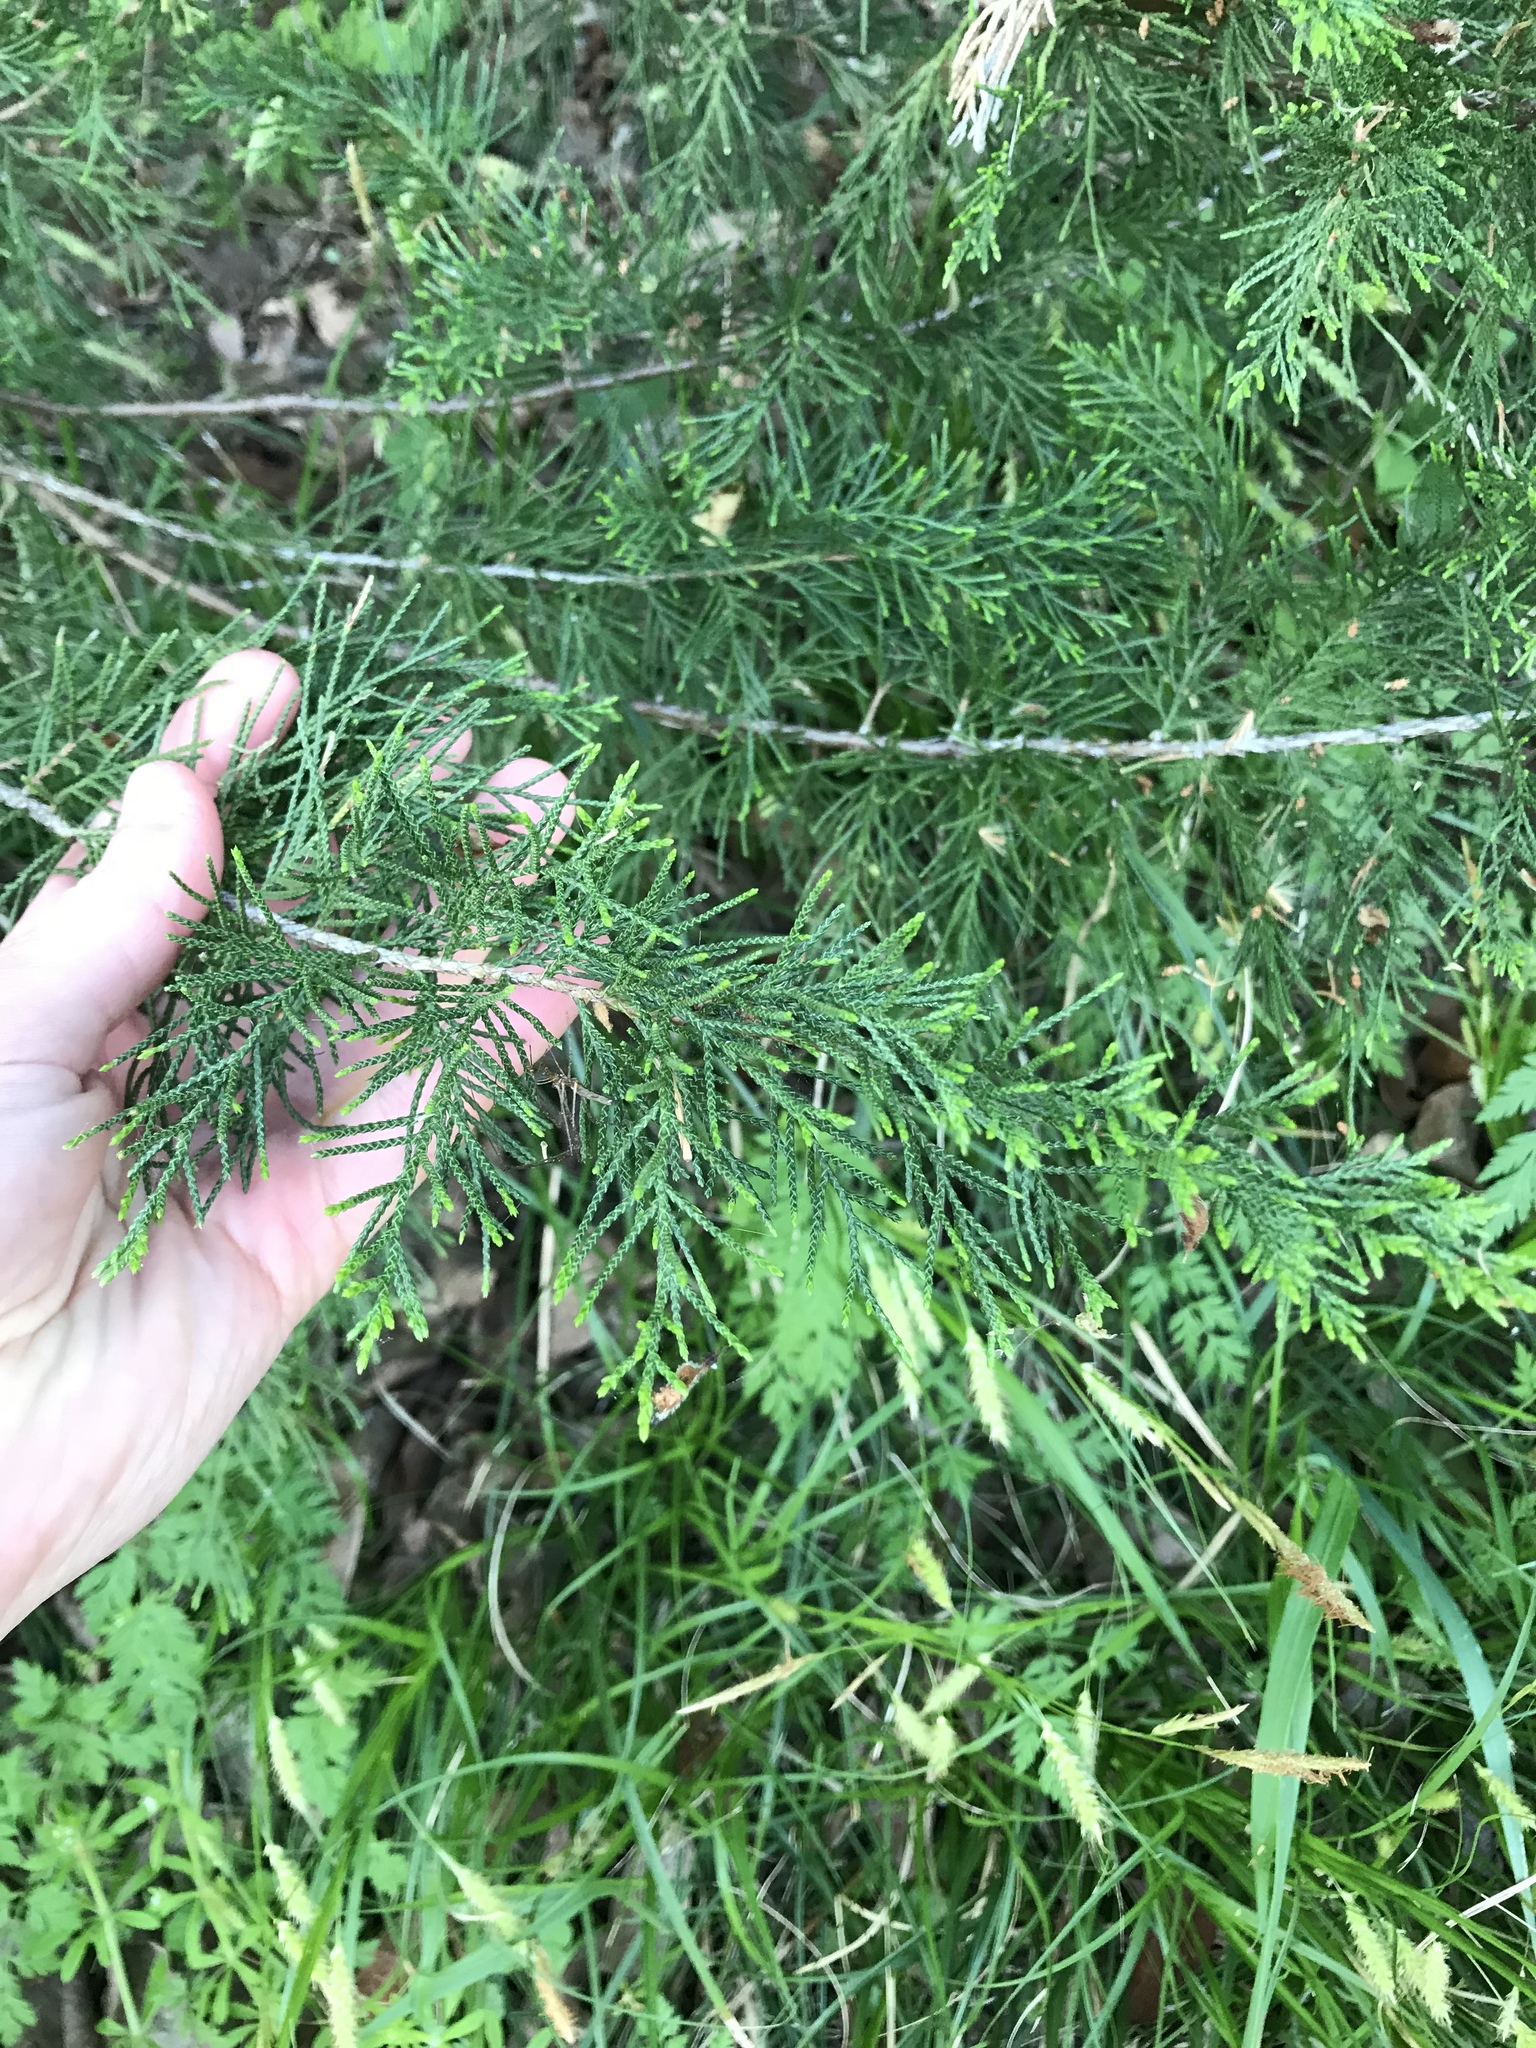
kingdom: Plantae
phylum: Tracheophyta
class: Pinopsida
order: Pinales
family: Cupressaceae
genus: Juniperus
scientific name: Juniperus virginiana
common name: Red juniper
